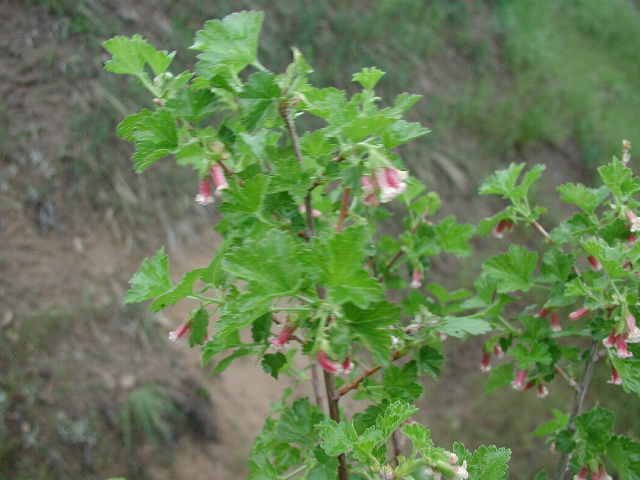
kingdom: Plantae
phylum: Tracheophyta
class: Magnoliopsida
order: Saxifragales
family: Grossulariaceae
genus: Ribes
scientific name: Ribes cereum
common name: Wax currant
